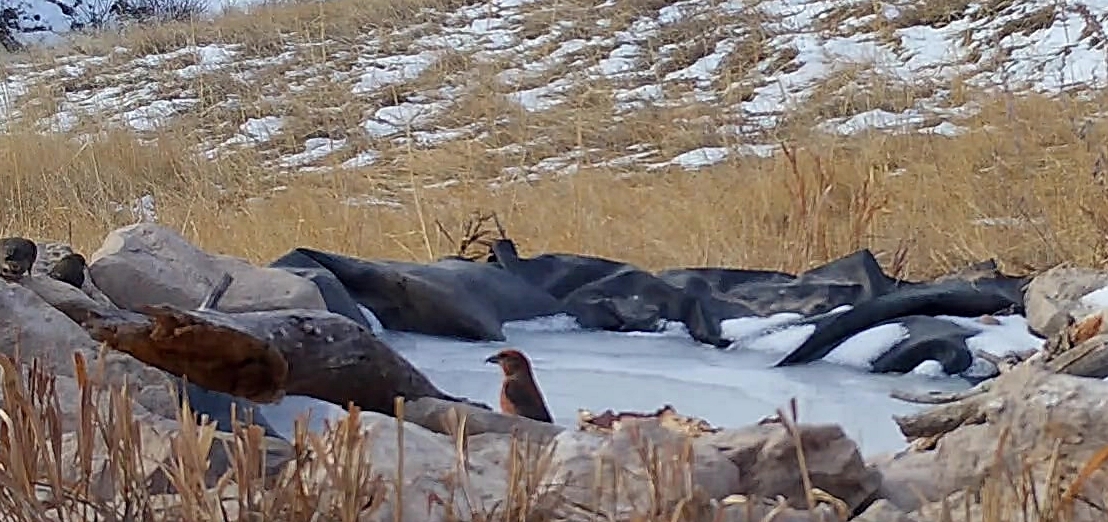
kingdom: Animalia
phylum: Chordata
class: Aves
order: Passeriformes
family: Fringillidae
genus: Loxia
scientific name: Loxia curvirostra
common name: Red crossbill
